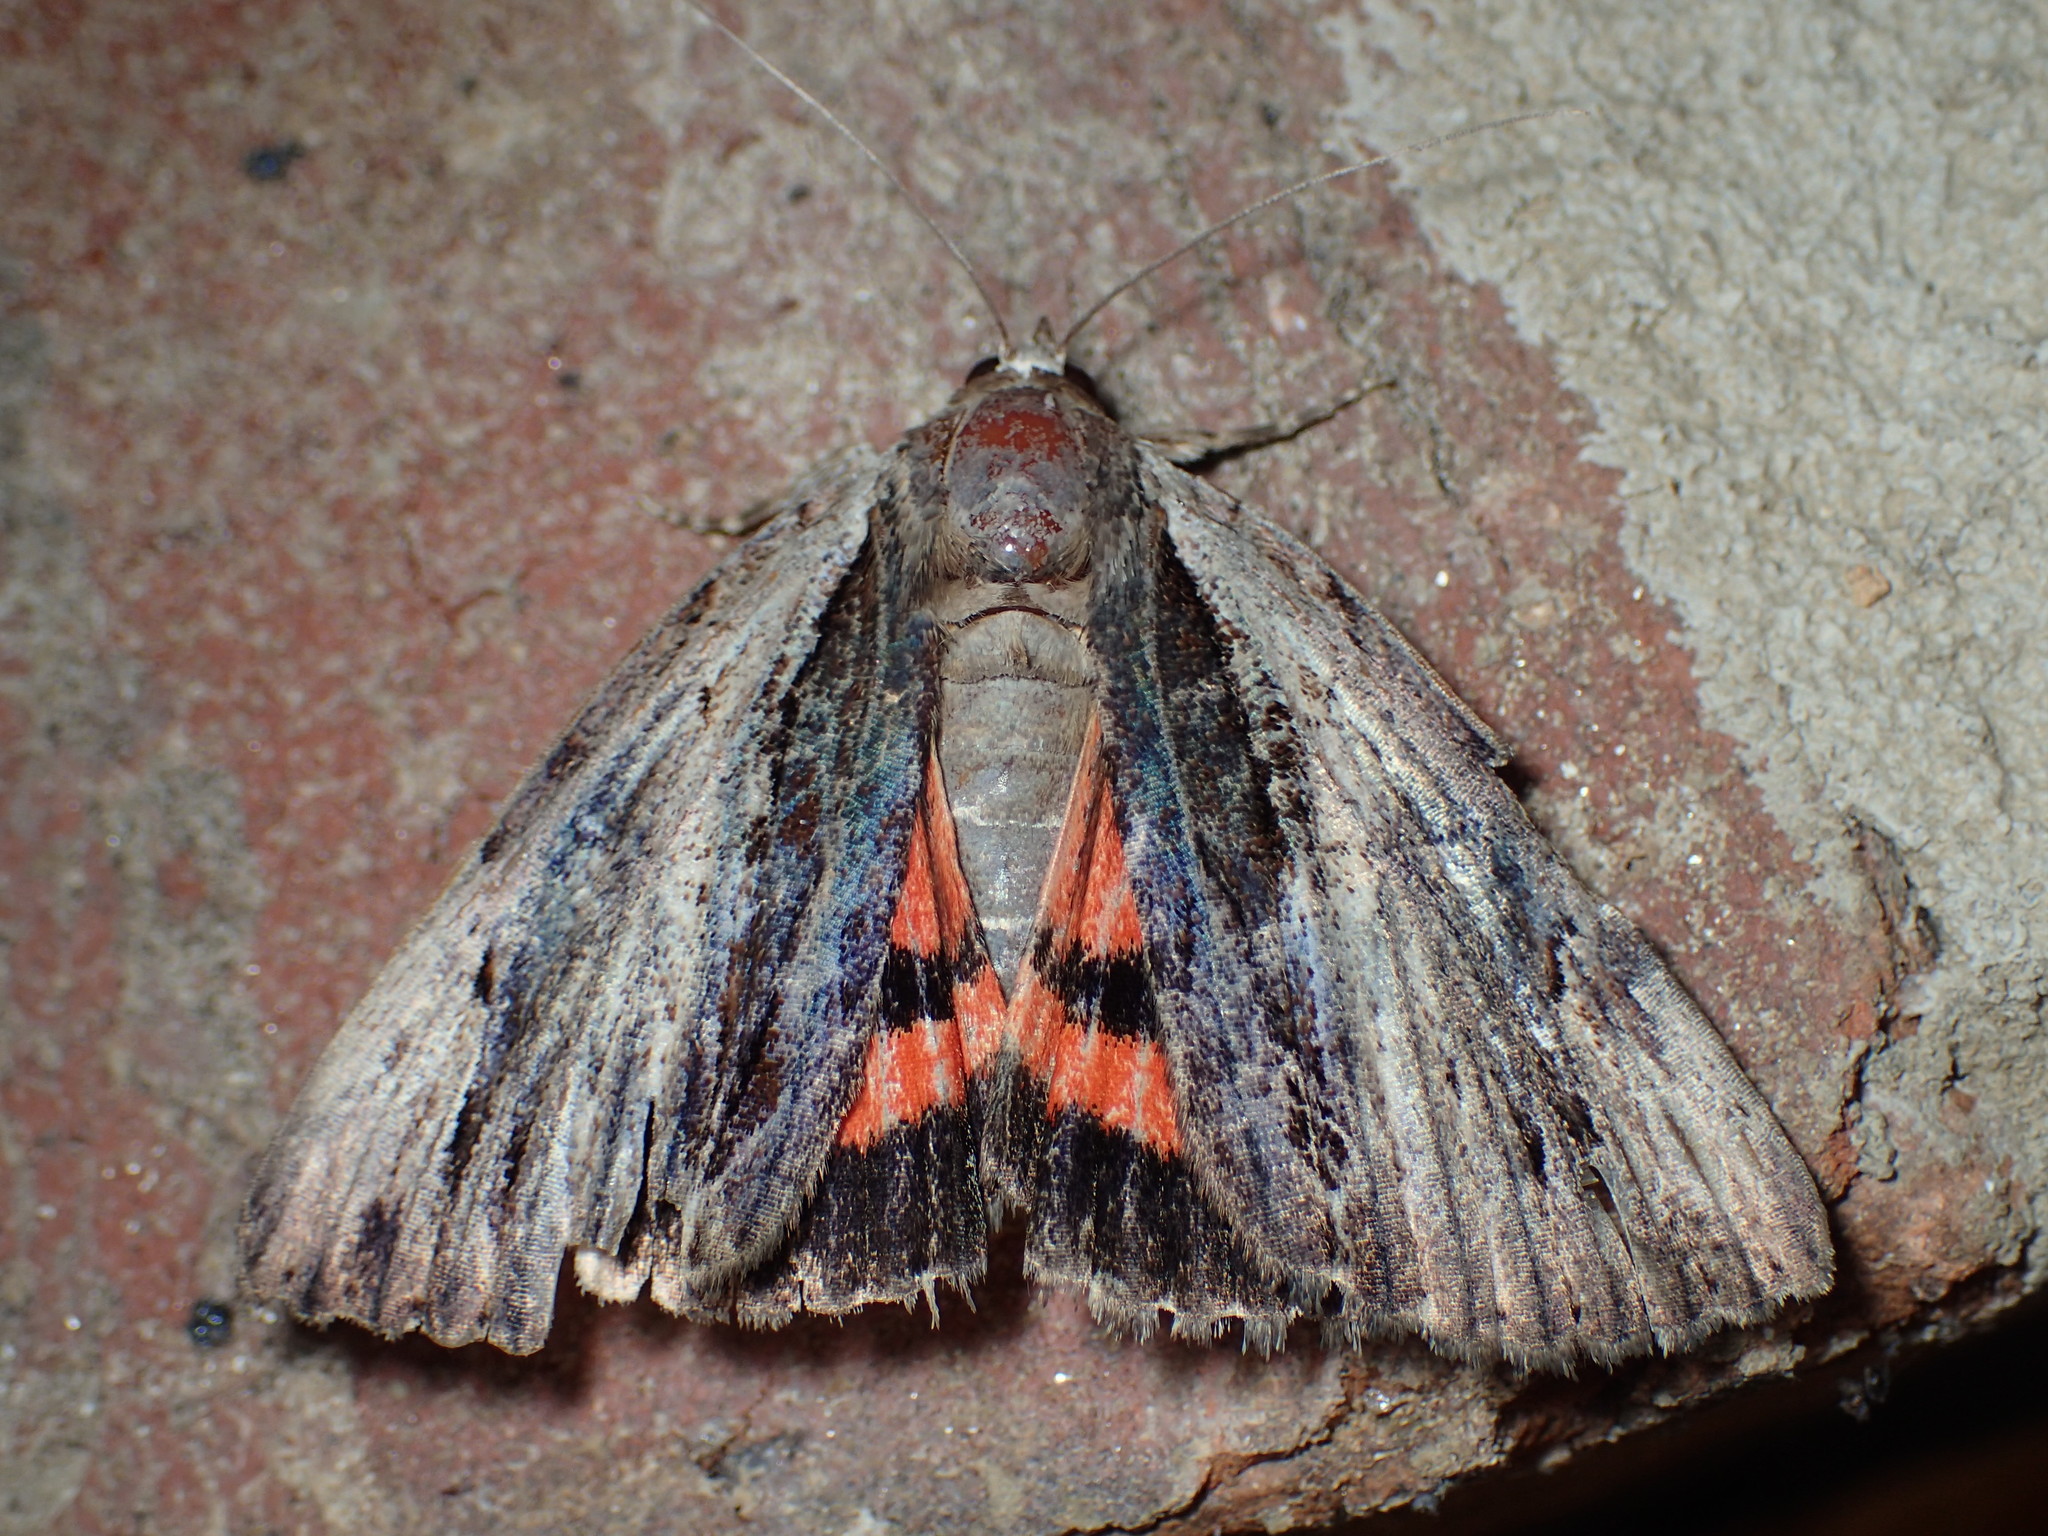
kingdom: Animalia
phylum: Arthropoda
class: Insecta
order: Lepidoptera
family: Erebidae
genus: Catocala
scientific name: Catocala ultronia
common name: Ultronia underwing
